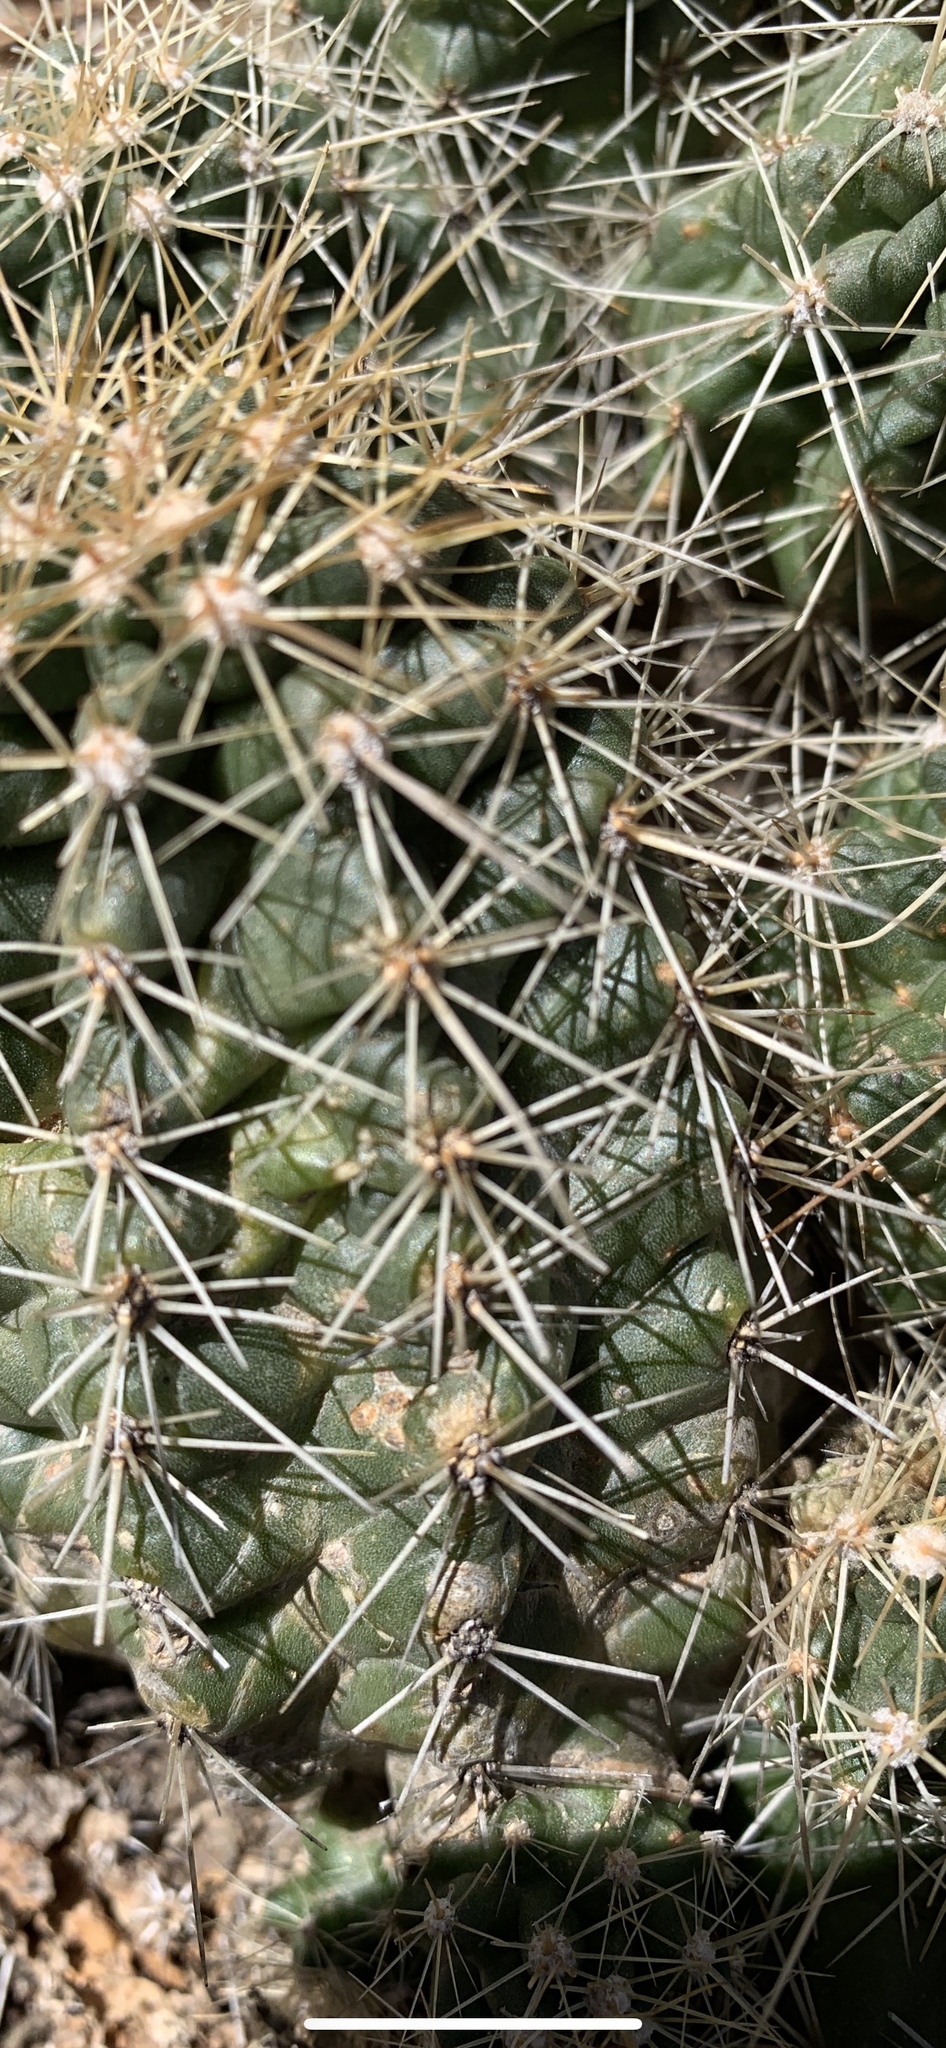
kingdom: Plantae
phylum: Tracheophyta
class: Magnoliopsida
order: Caryophyllales
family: Cactaceae
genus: Echinocereus
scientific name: Echinocereus bakeri
